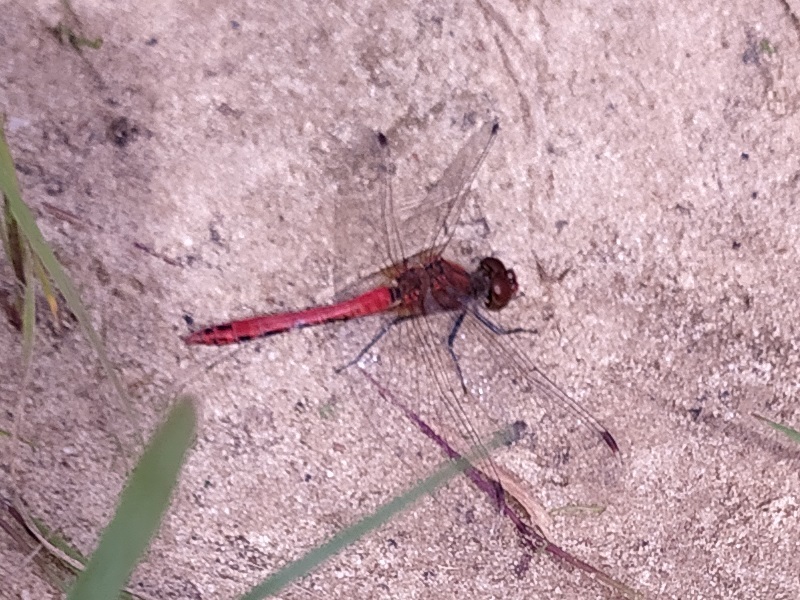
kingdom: Animalia
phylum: Arthropoda
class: Insecta
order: Odonata
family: Libellulidae
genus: Sympetrum
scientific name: Sympetrum sanguineum
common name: Ruddy darter
